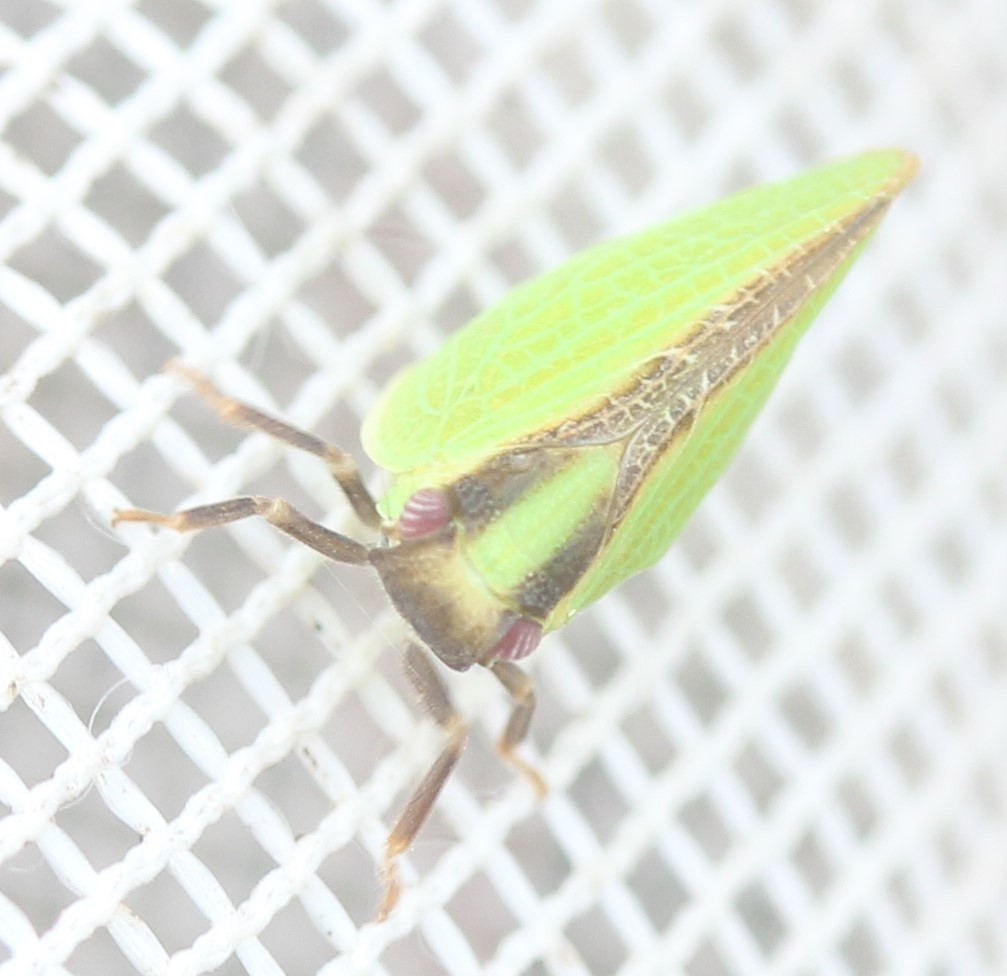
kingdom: Animalia
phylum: Arthropoda
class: Insecta
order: Hemiptera
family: Acanaloniidae
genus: Acanalonia
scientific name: Acanalonia bivittata
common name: Two-striped planthopper
